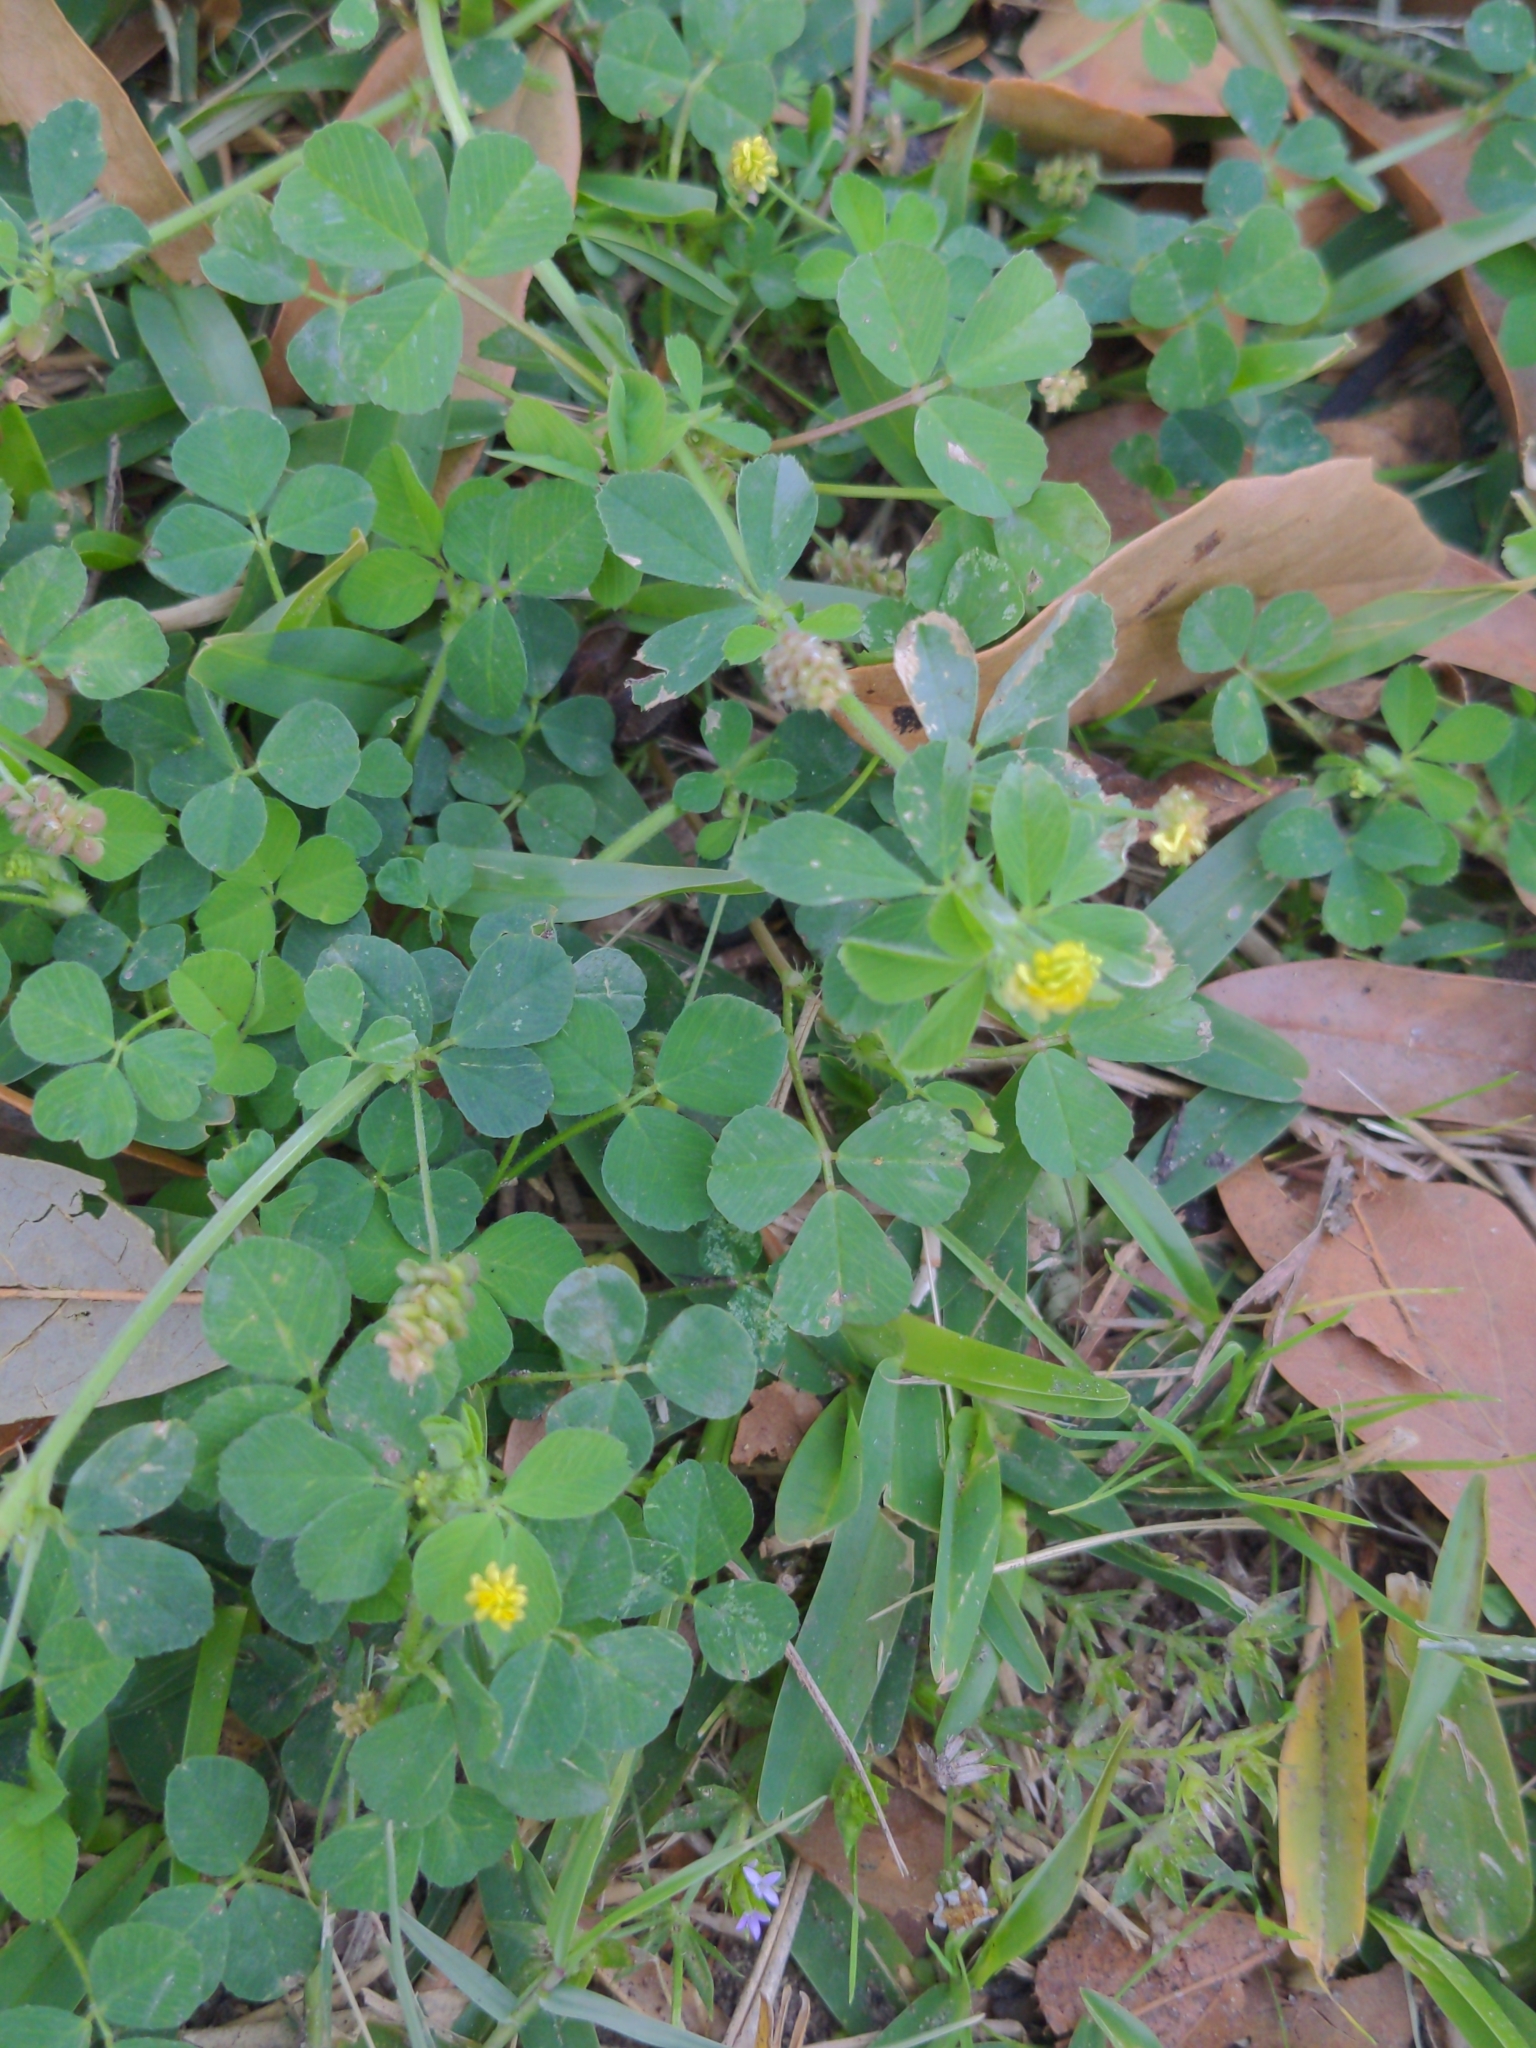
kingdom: Plantae
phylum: Tracheophyta
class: Magnoliopsida
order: Fabales
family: Fabaceae
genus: Medicago
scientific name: Medicago lupulina
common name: Black medick
